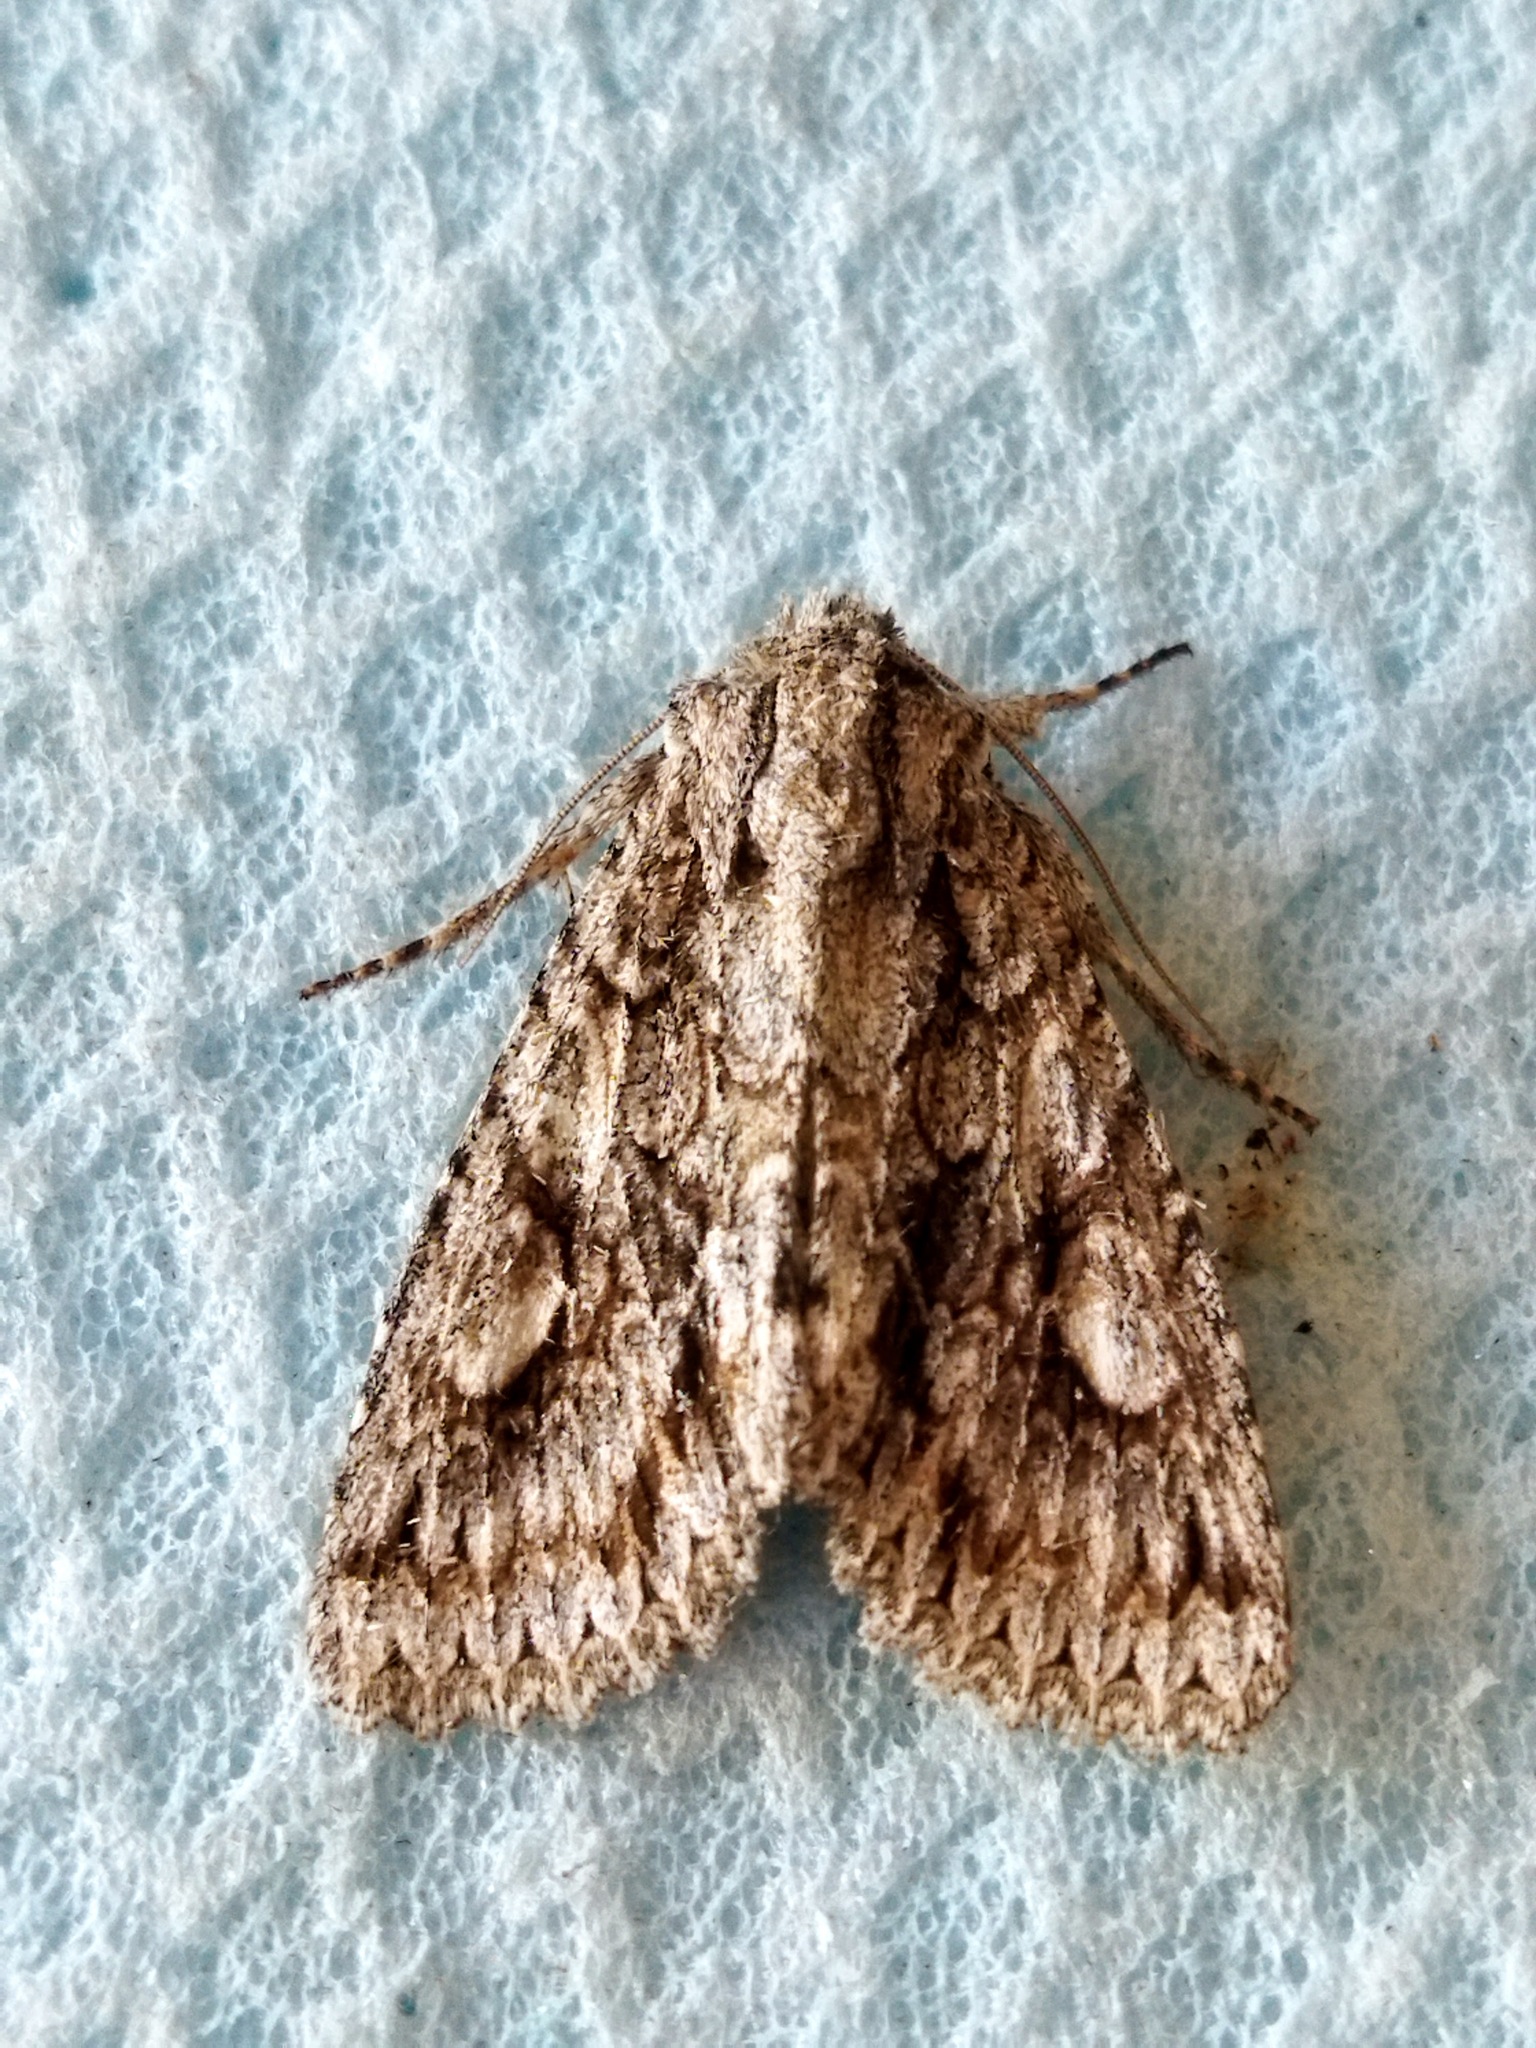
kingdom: Animalia
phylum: Arthropoda
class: Insecta
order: Lepidoptera
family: Noctuidae
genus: Meganephria
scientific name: Meganephria bimaculosa
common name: Double-spot brocade
